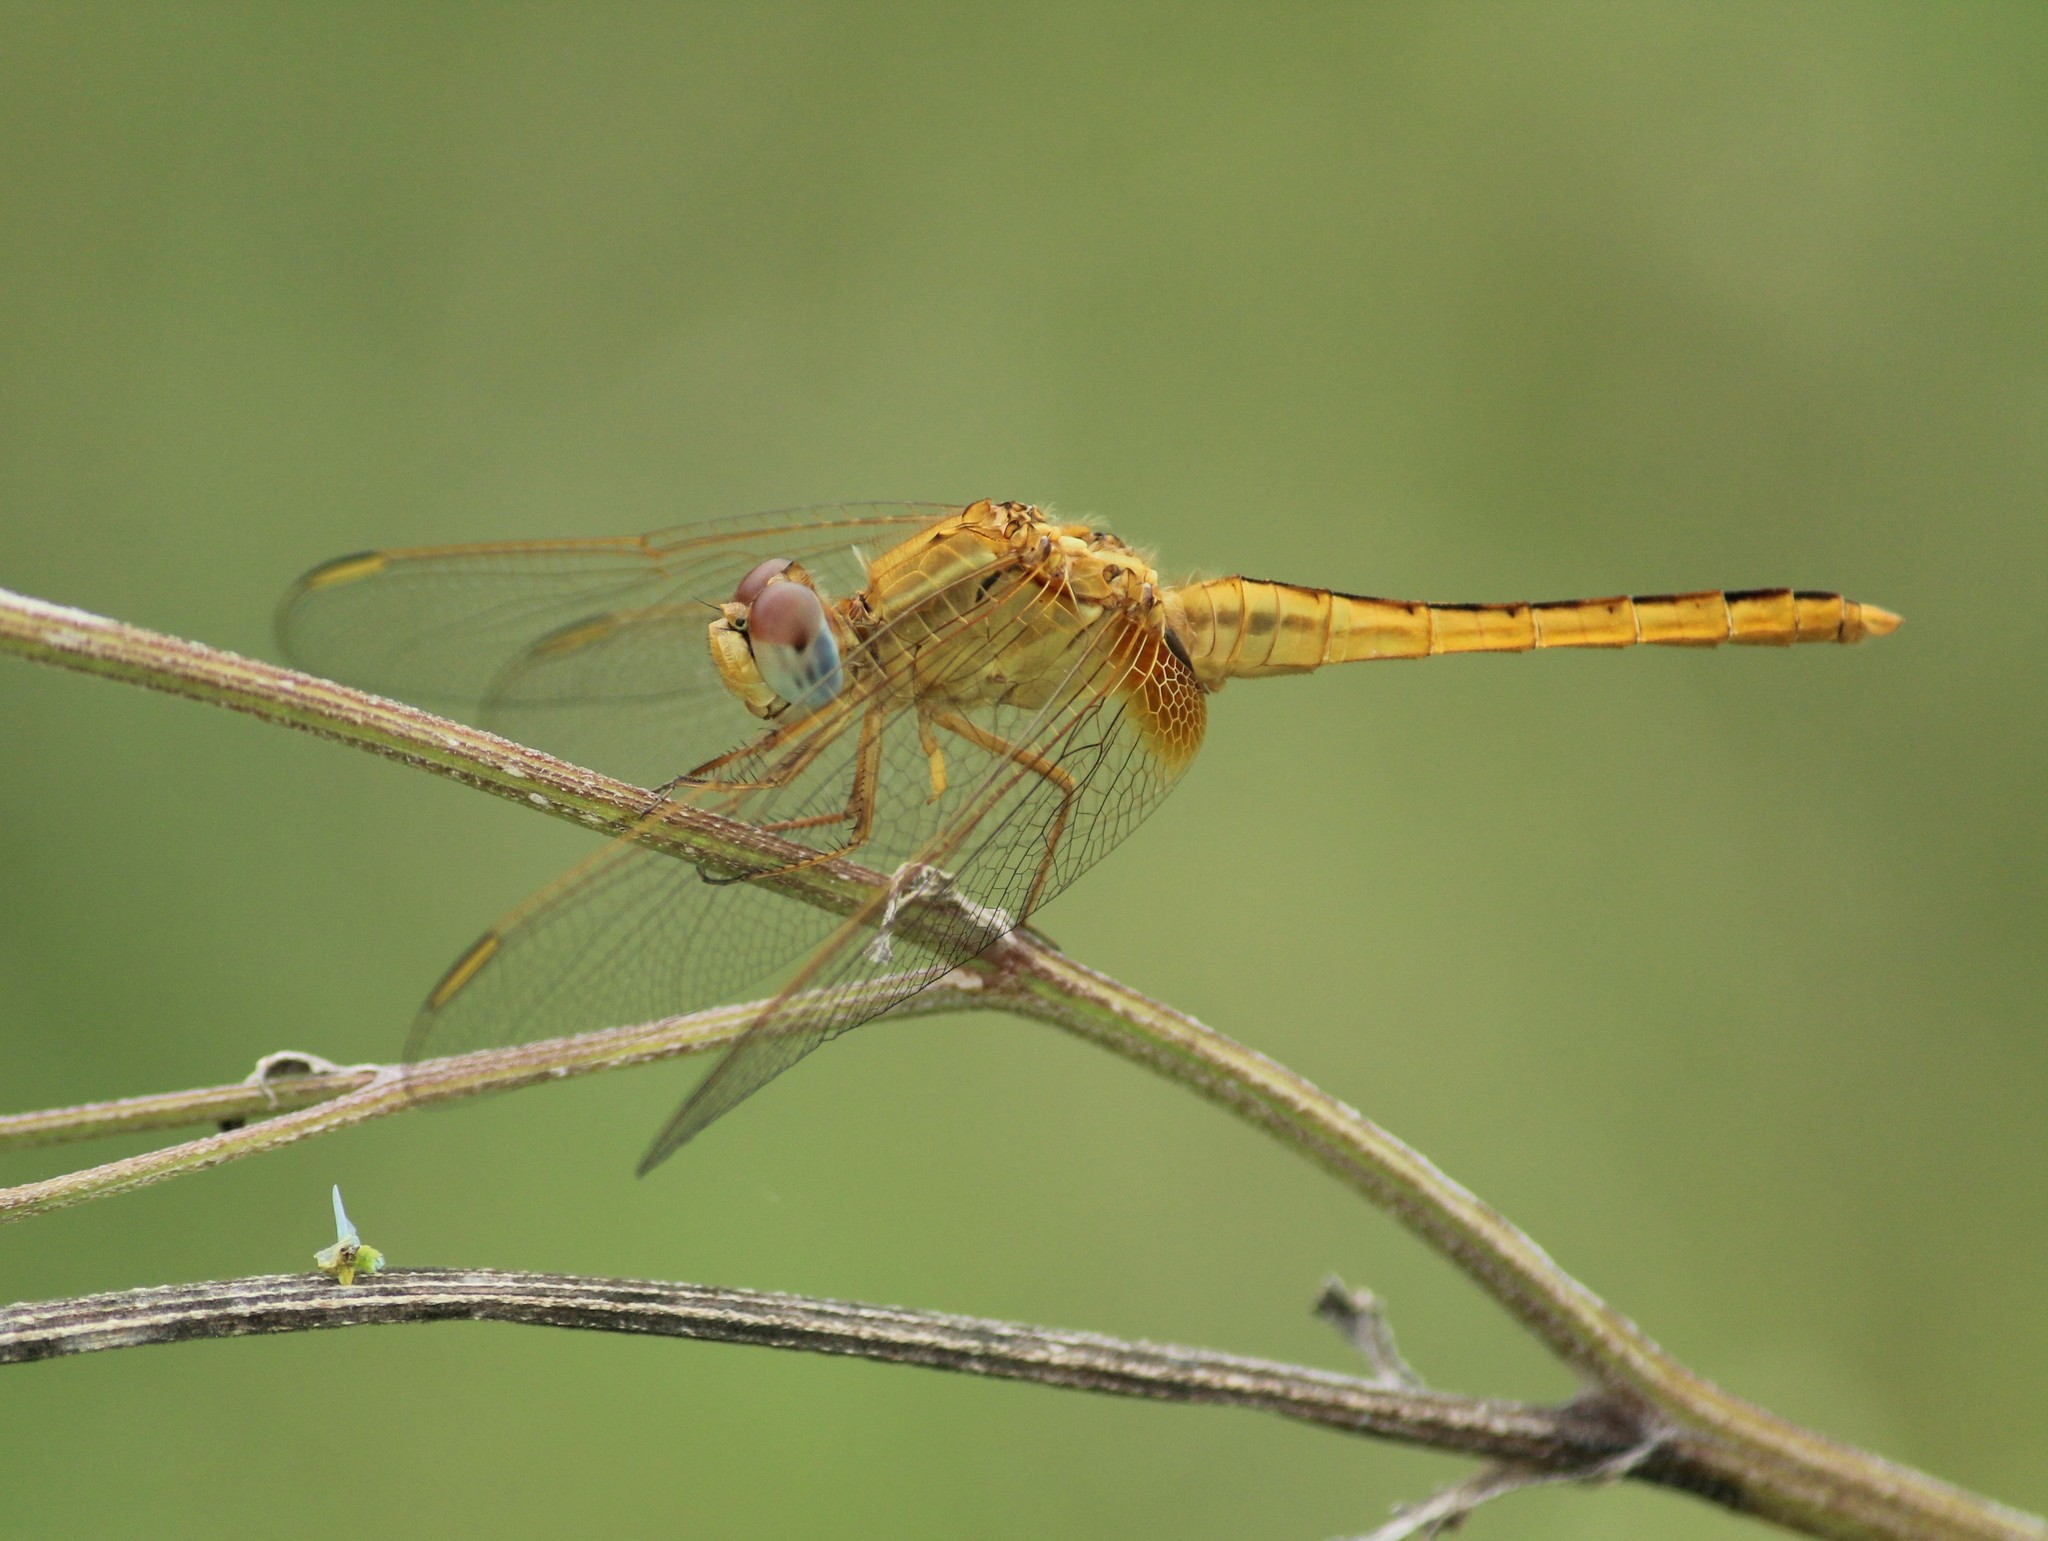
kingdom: Animalia
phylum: Arthropoda
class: Insecta
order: Odonata
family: Libellulidae
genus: Crocothemis
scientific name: Crocothemis servilia
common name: Scarlet skimmer
